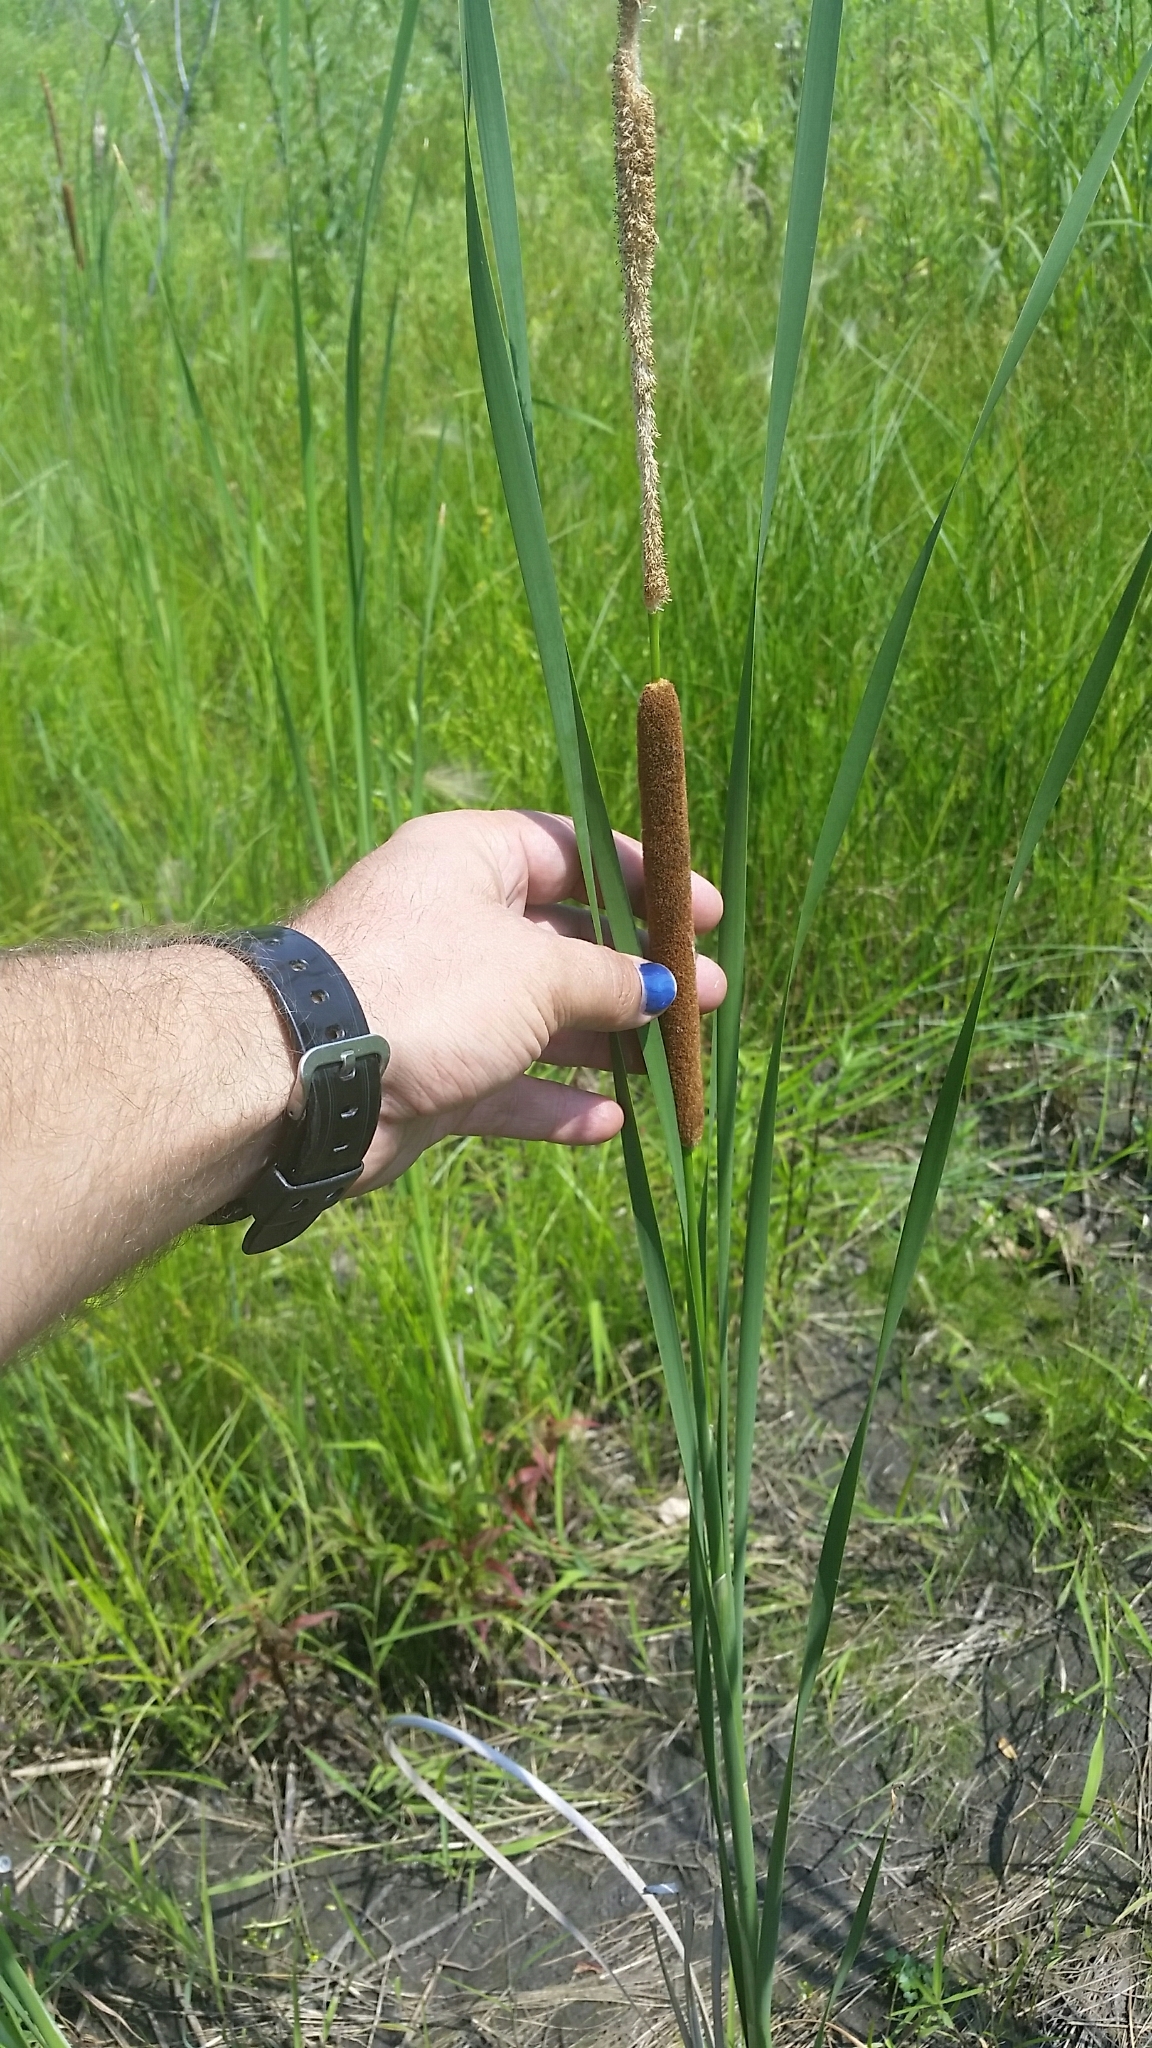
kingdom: Plantae
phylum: Tracheophyta
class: Liliopsida
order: Poales
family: Typhaceae
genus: Typha
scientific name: Typha angustifolia
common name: Lesser bulrush
